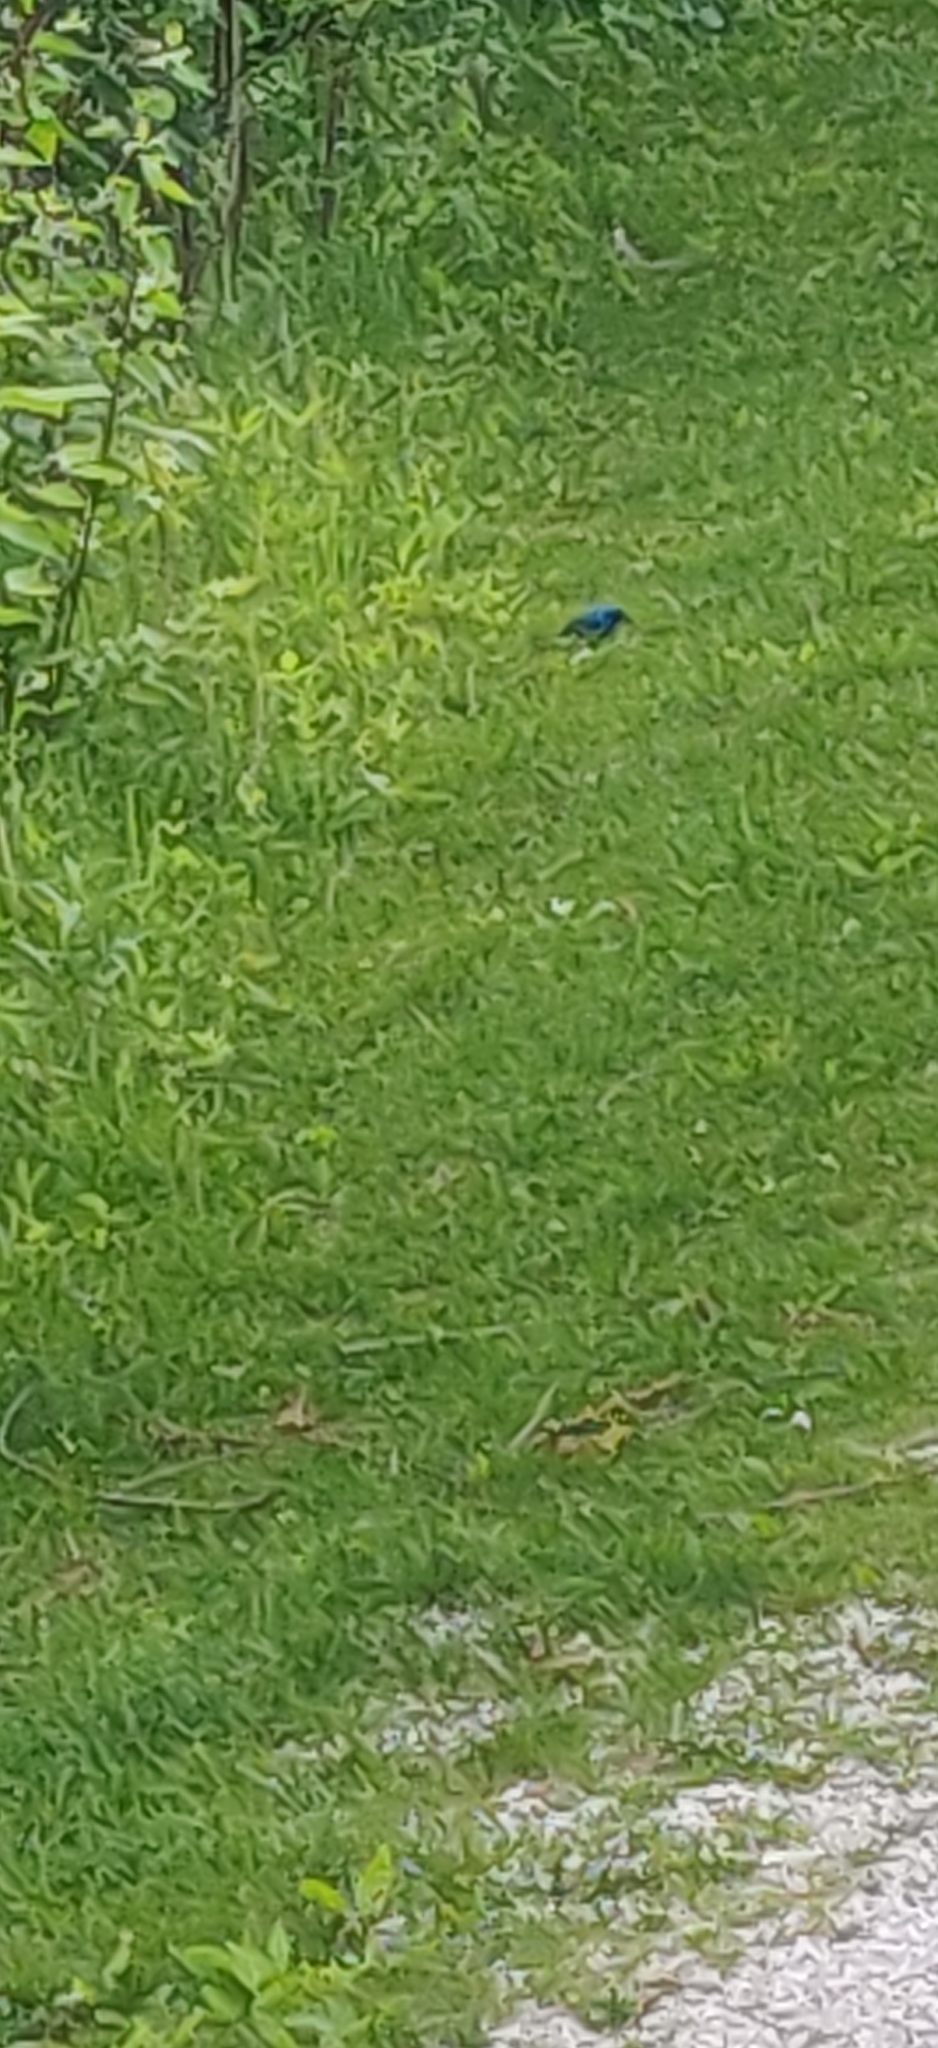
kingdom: Animalia
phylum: Chordata
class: Aves
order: Passeriformes
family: Cardinalidae
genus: Passerina
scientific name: Passerina cyanea
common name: Indigo bunting
